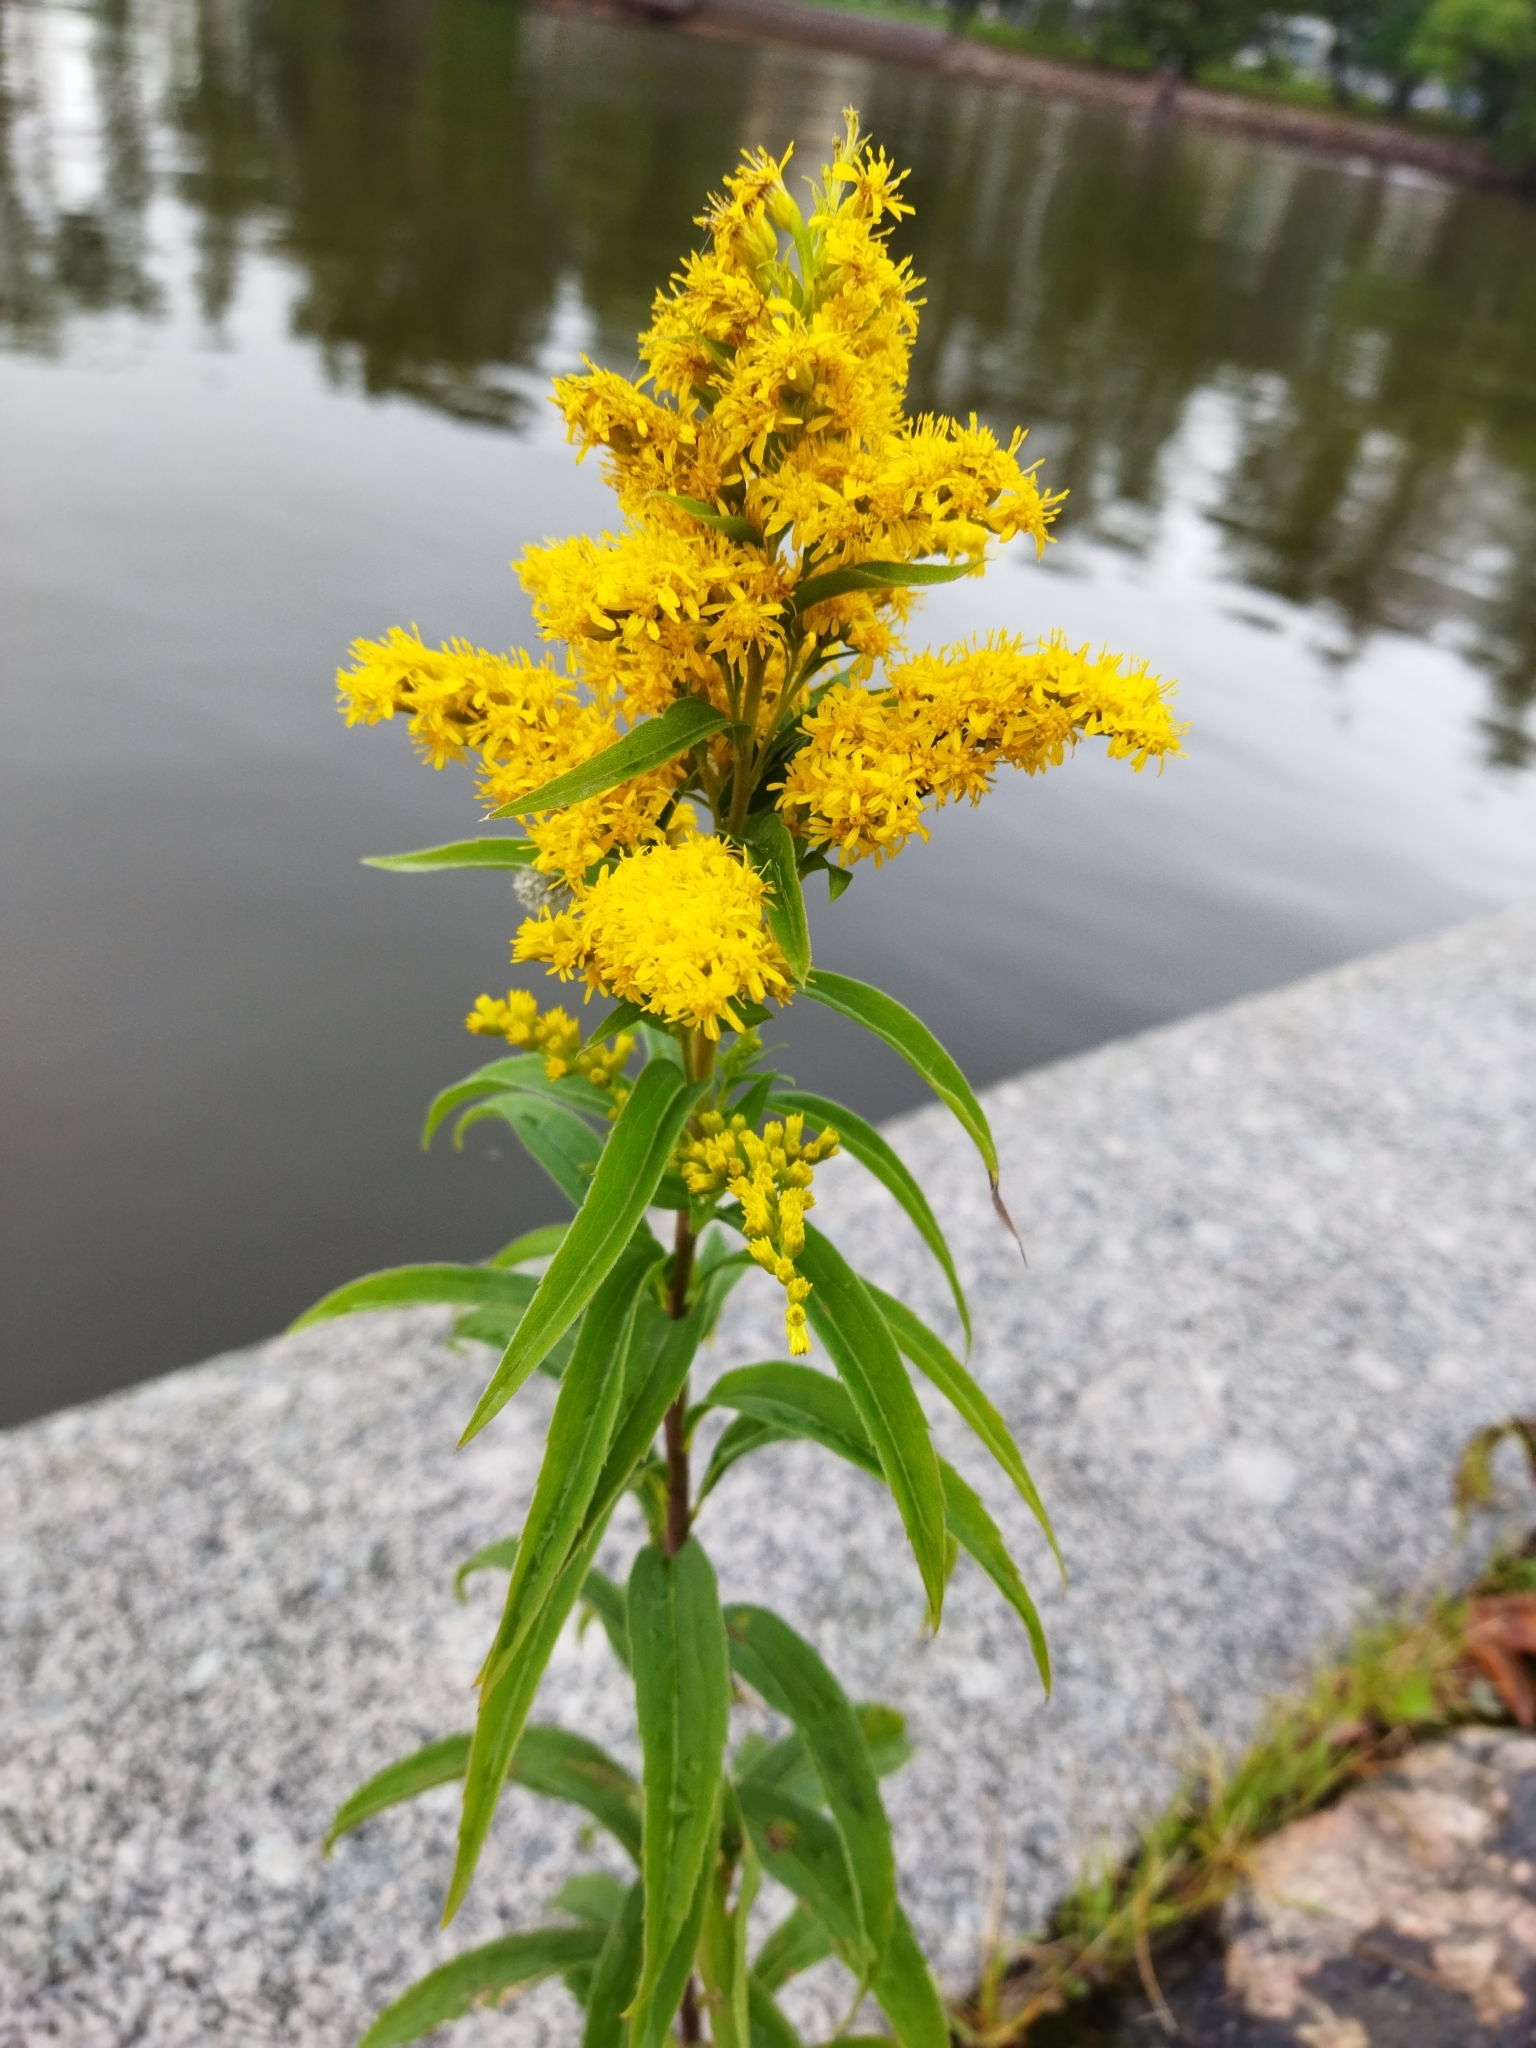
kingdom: Plantae
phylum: Tracheophyta
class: Magnoliopsida
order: Asterales
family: Asteraceae
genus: Solidago
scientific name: Solidago gigantea
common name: Giant goldenrod
